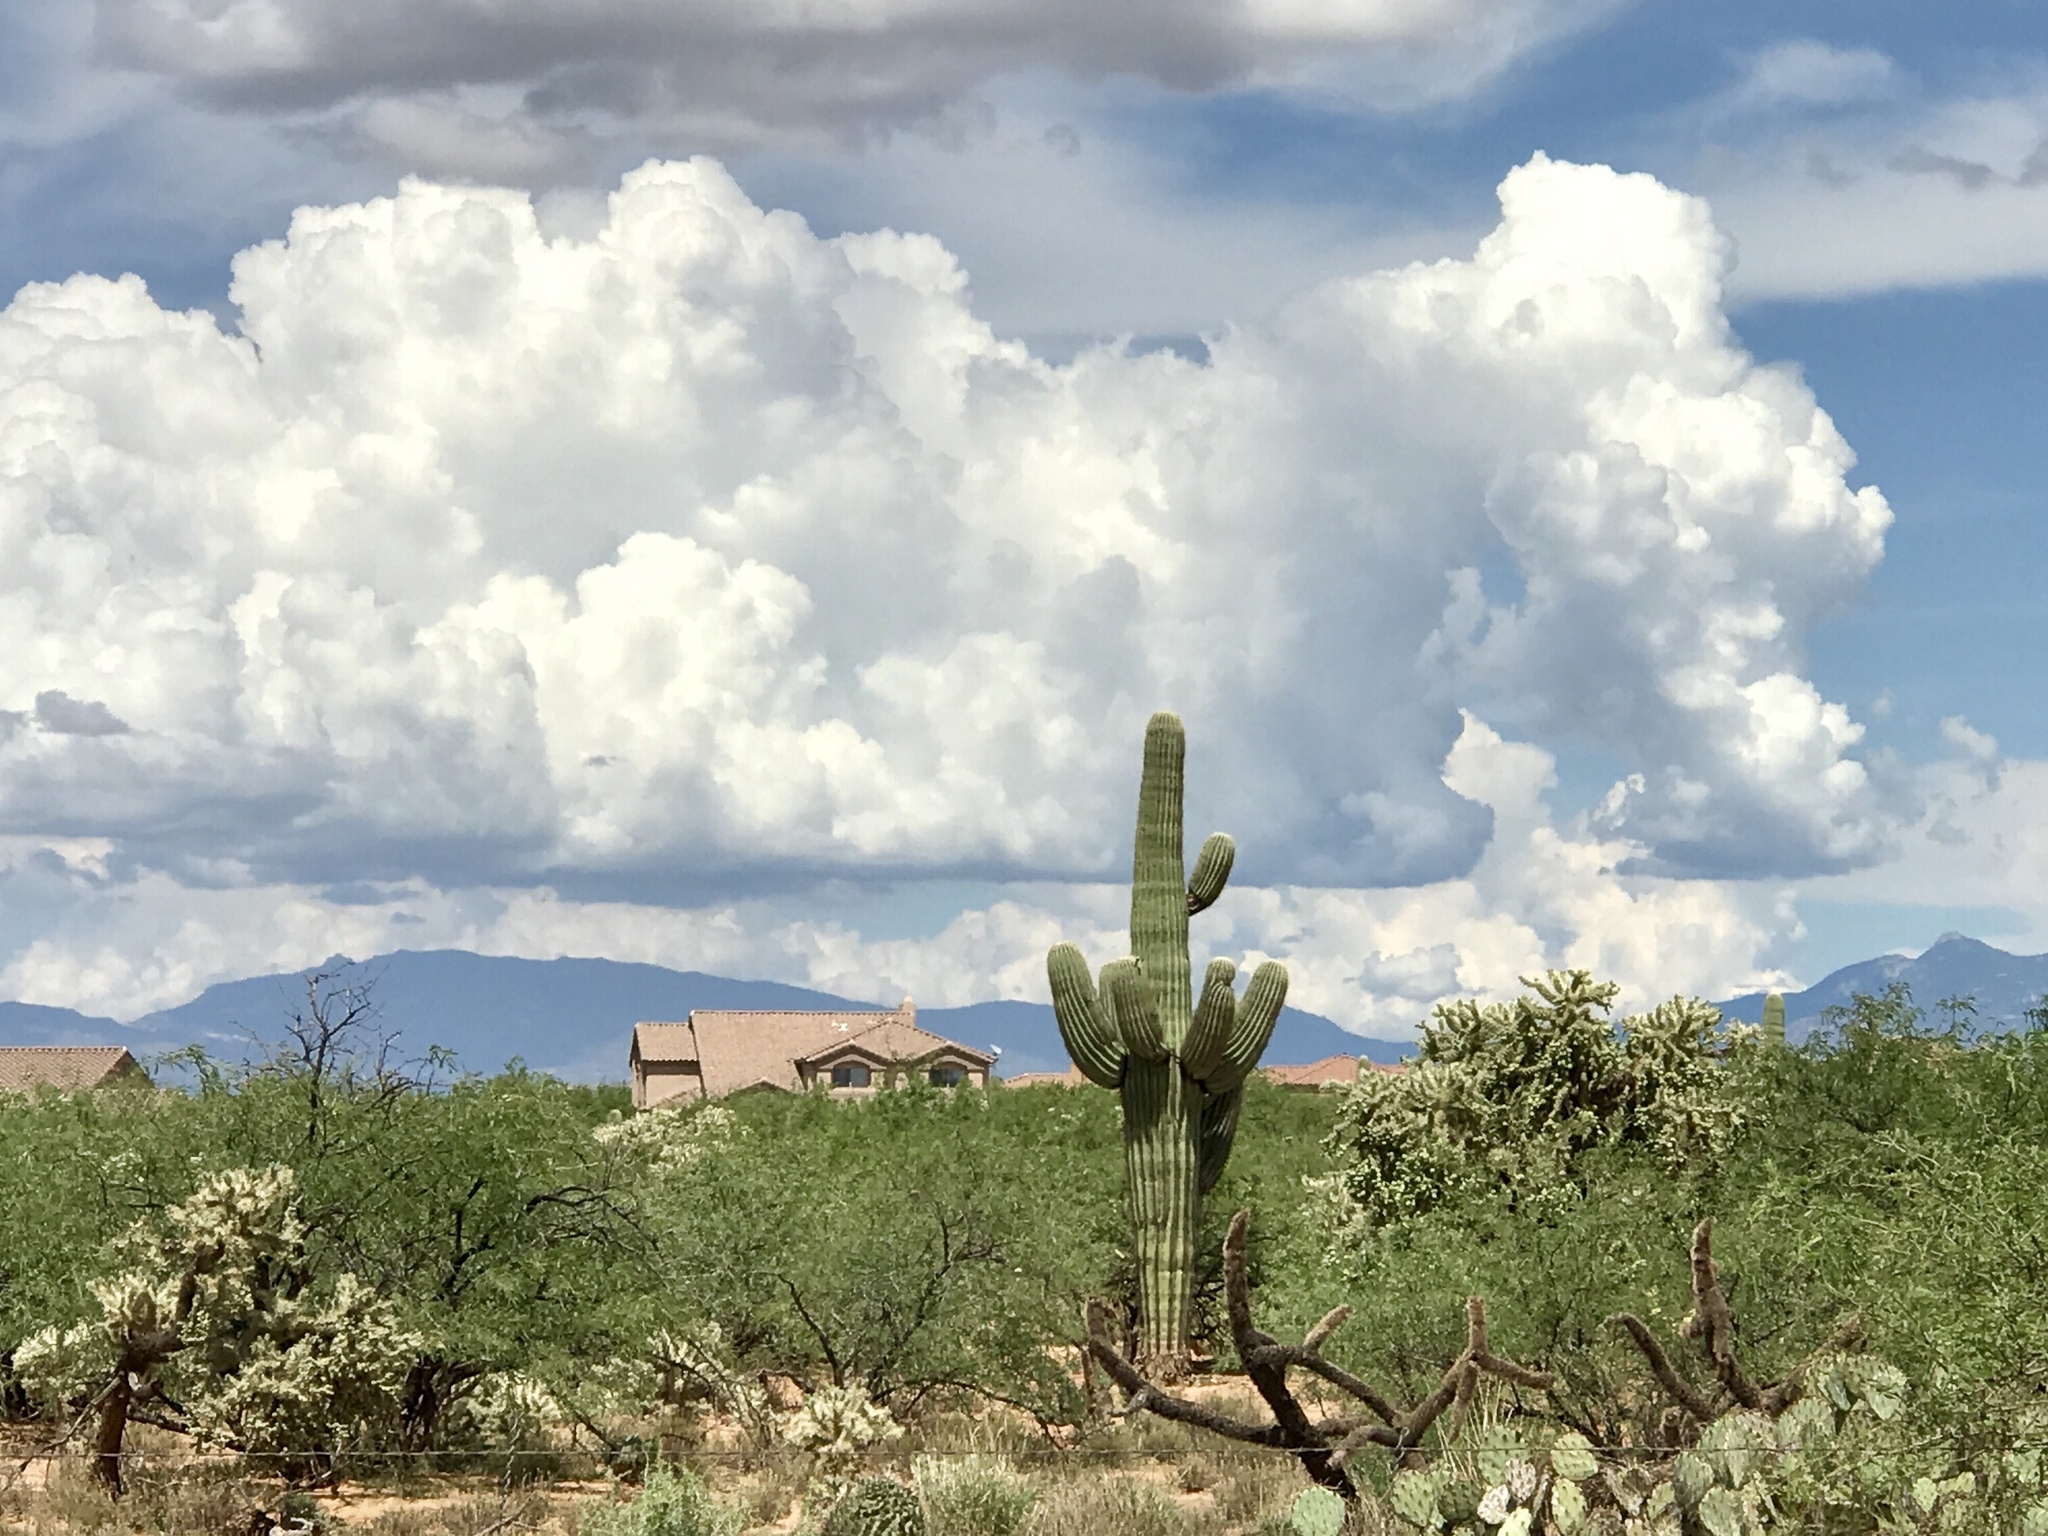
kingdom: Plantae
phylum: Tracheophyta
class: Magnoliopsida
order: Caryophyllales
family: Cactaceae
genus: Carnegiea
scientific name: Carnegiea gigantea
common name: Saguaro
